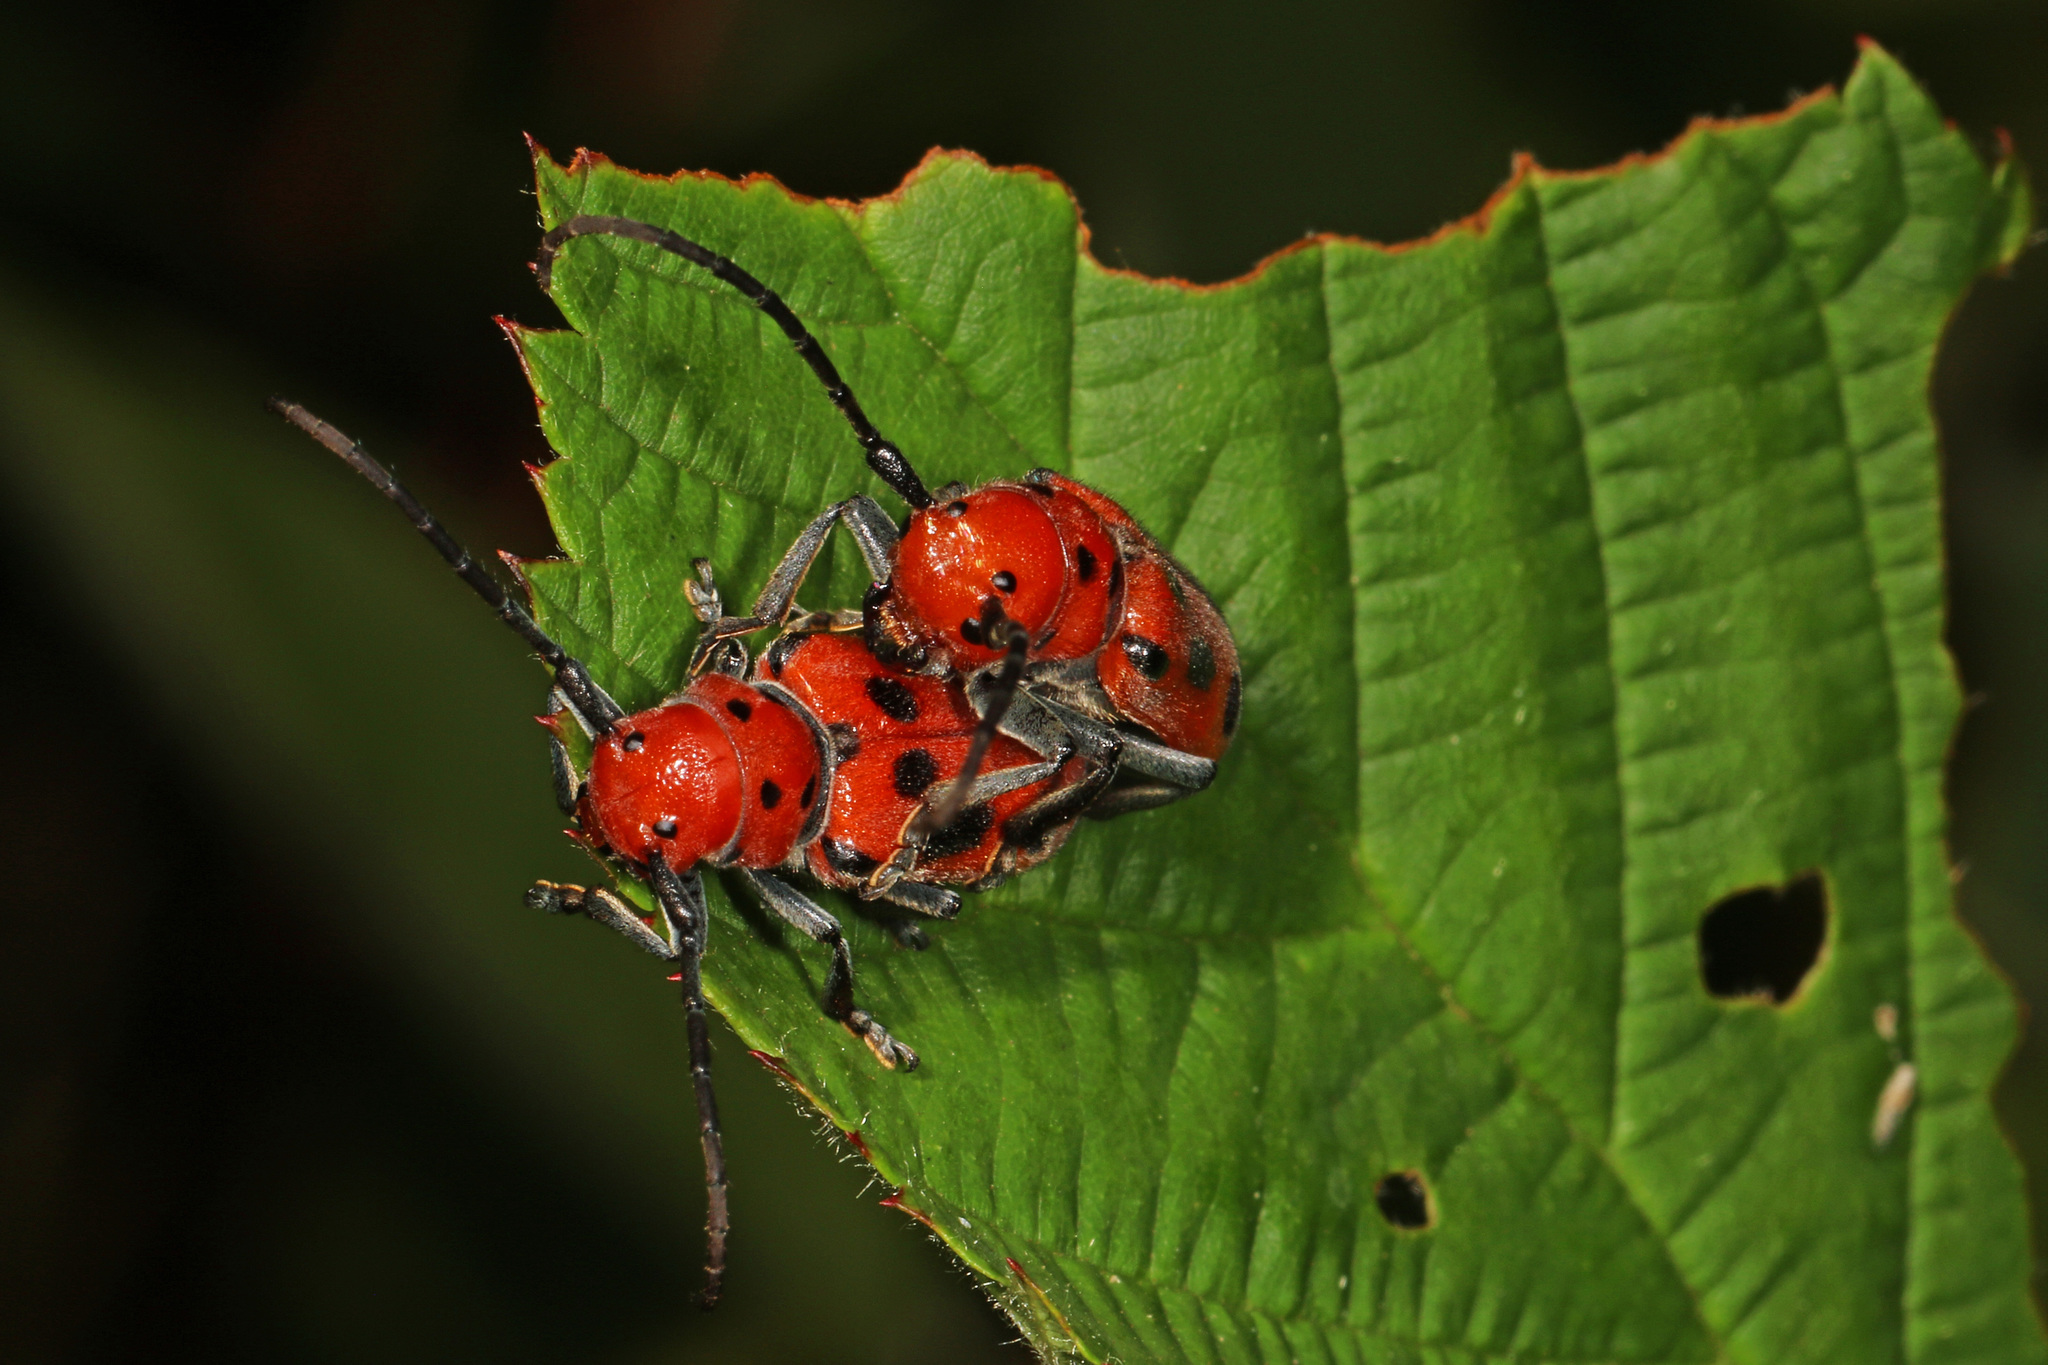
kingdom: Animalia
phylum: Arthropoda
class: Insecta
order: Coleoptera
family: Cerambycidae
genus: Tetraopes
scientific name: Tetraopes tetrophthalmus
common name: Red milkweed beetle
